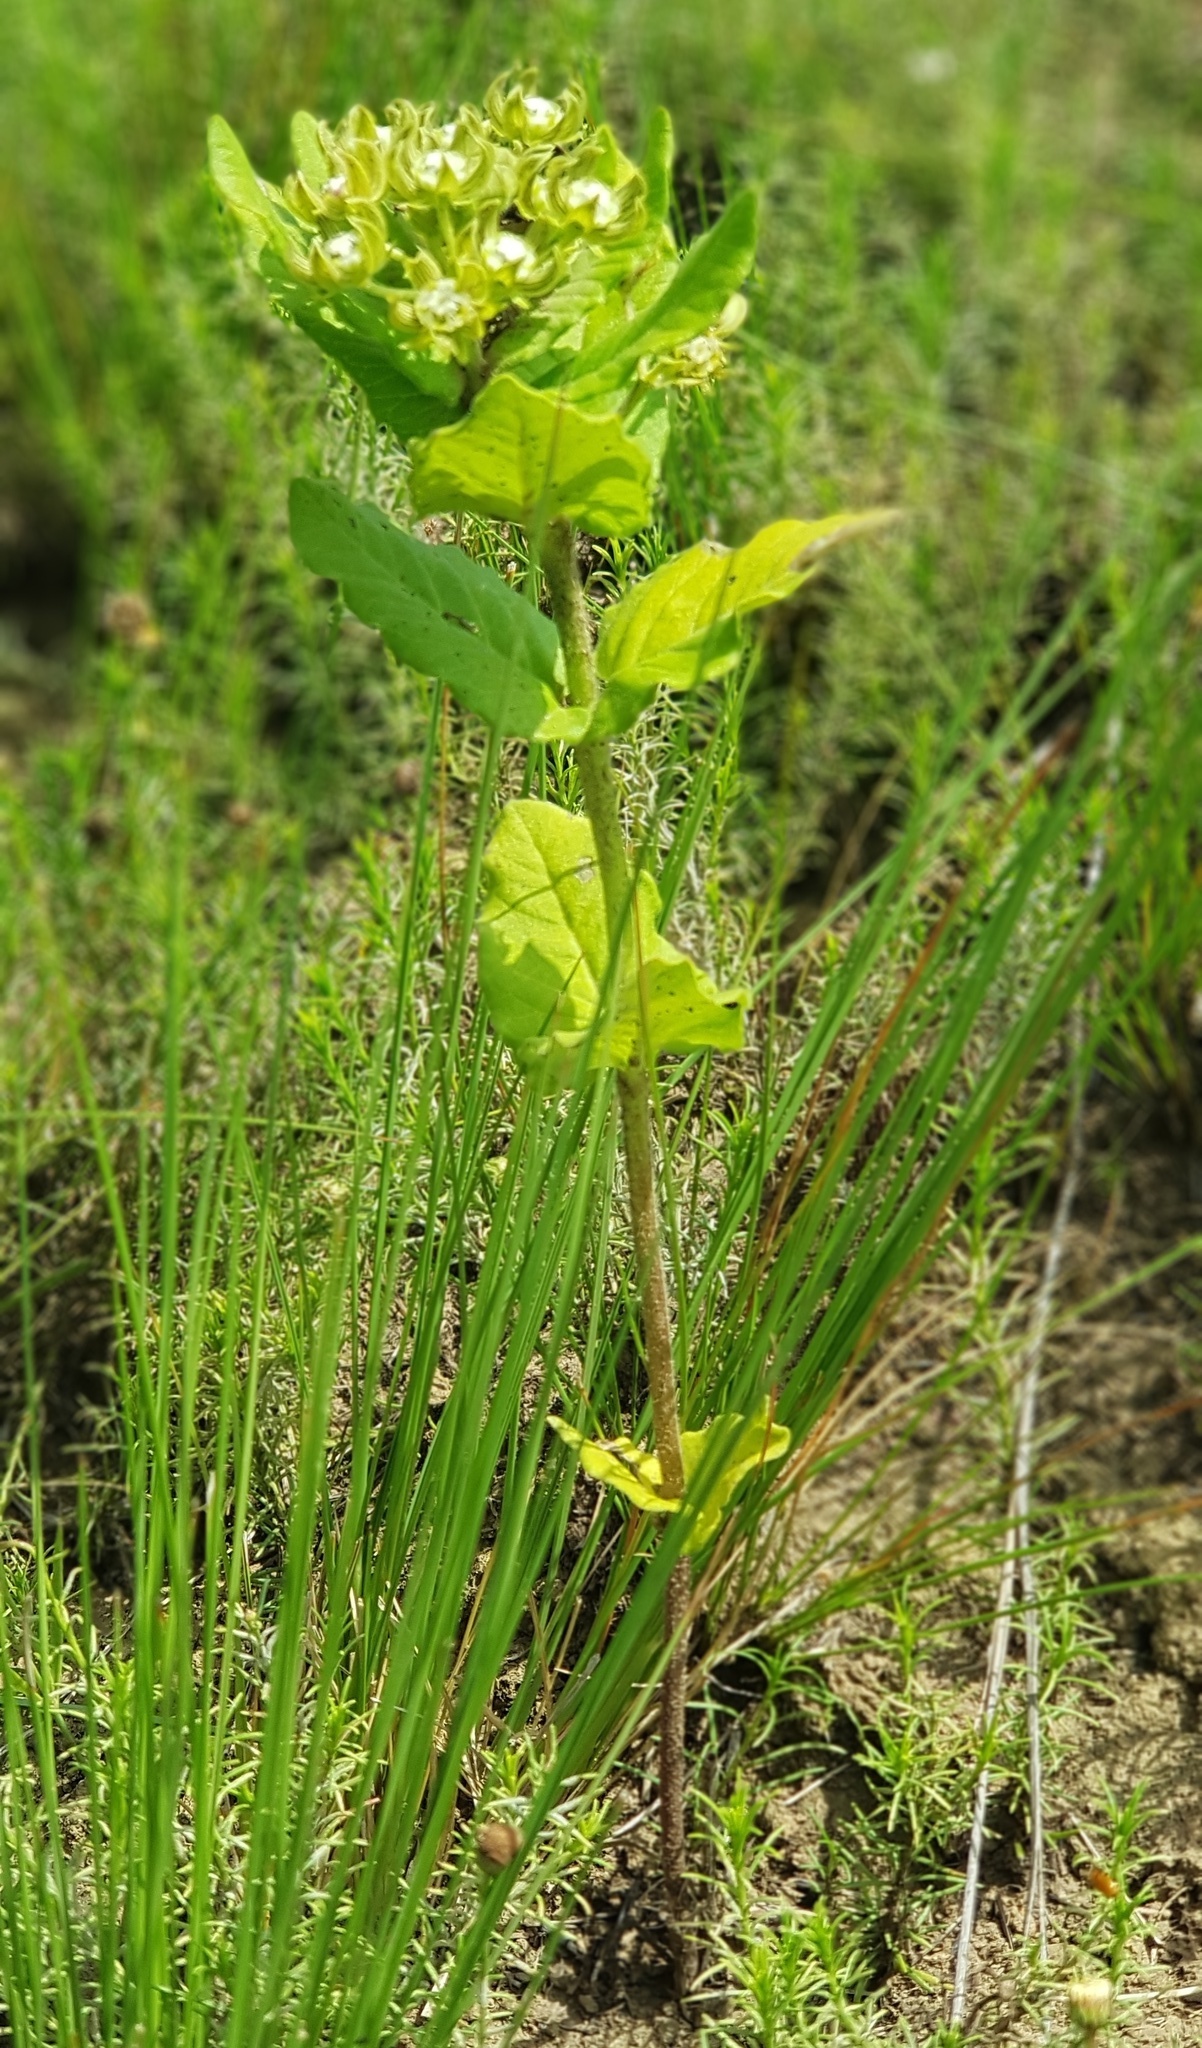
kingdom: Plantae
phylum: Tracheophyta
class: Magnoliopsida
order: Gentianales
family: Apocynaceae
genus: Schizoglossum
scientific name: Schizoglossum cordifolium
